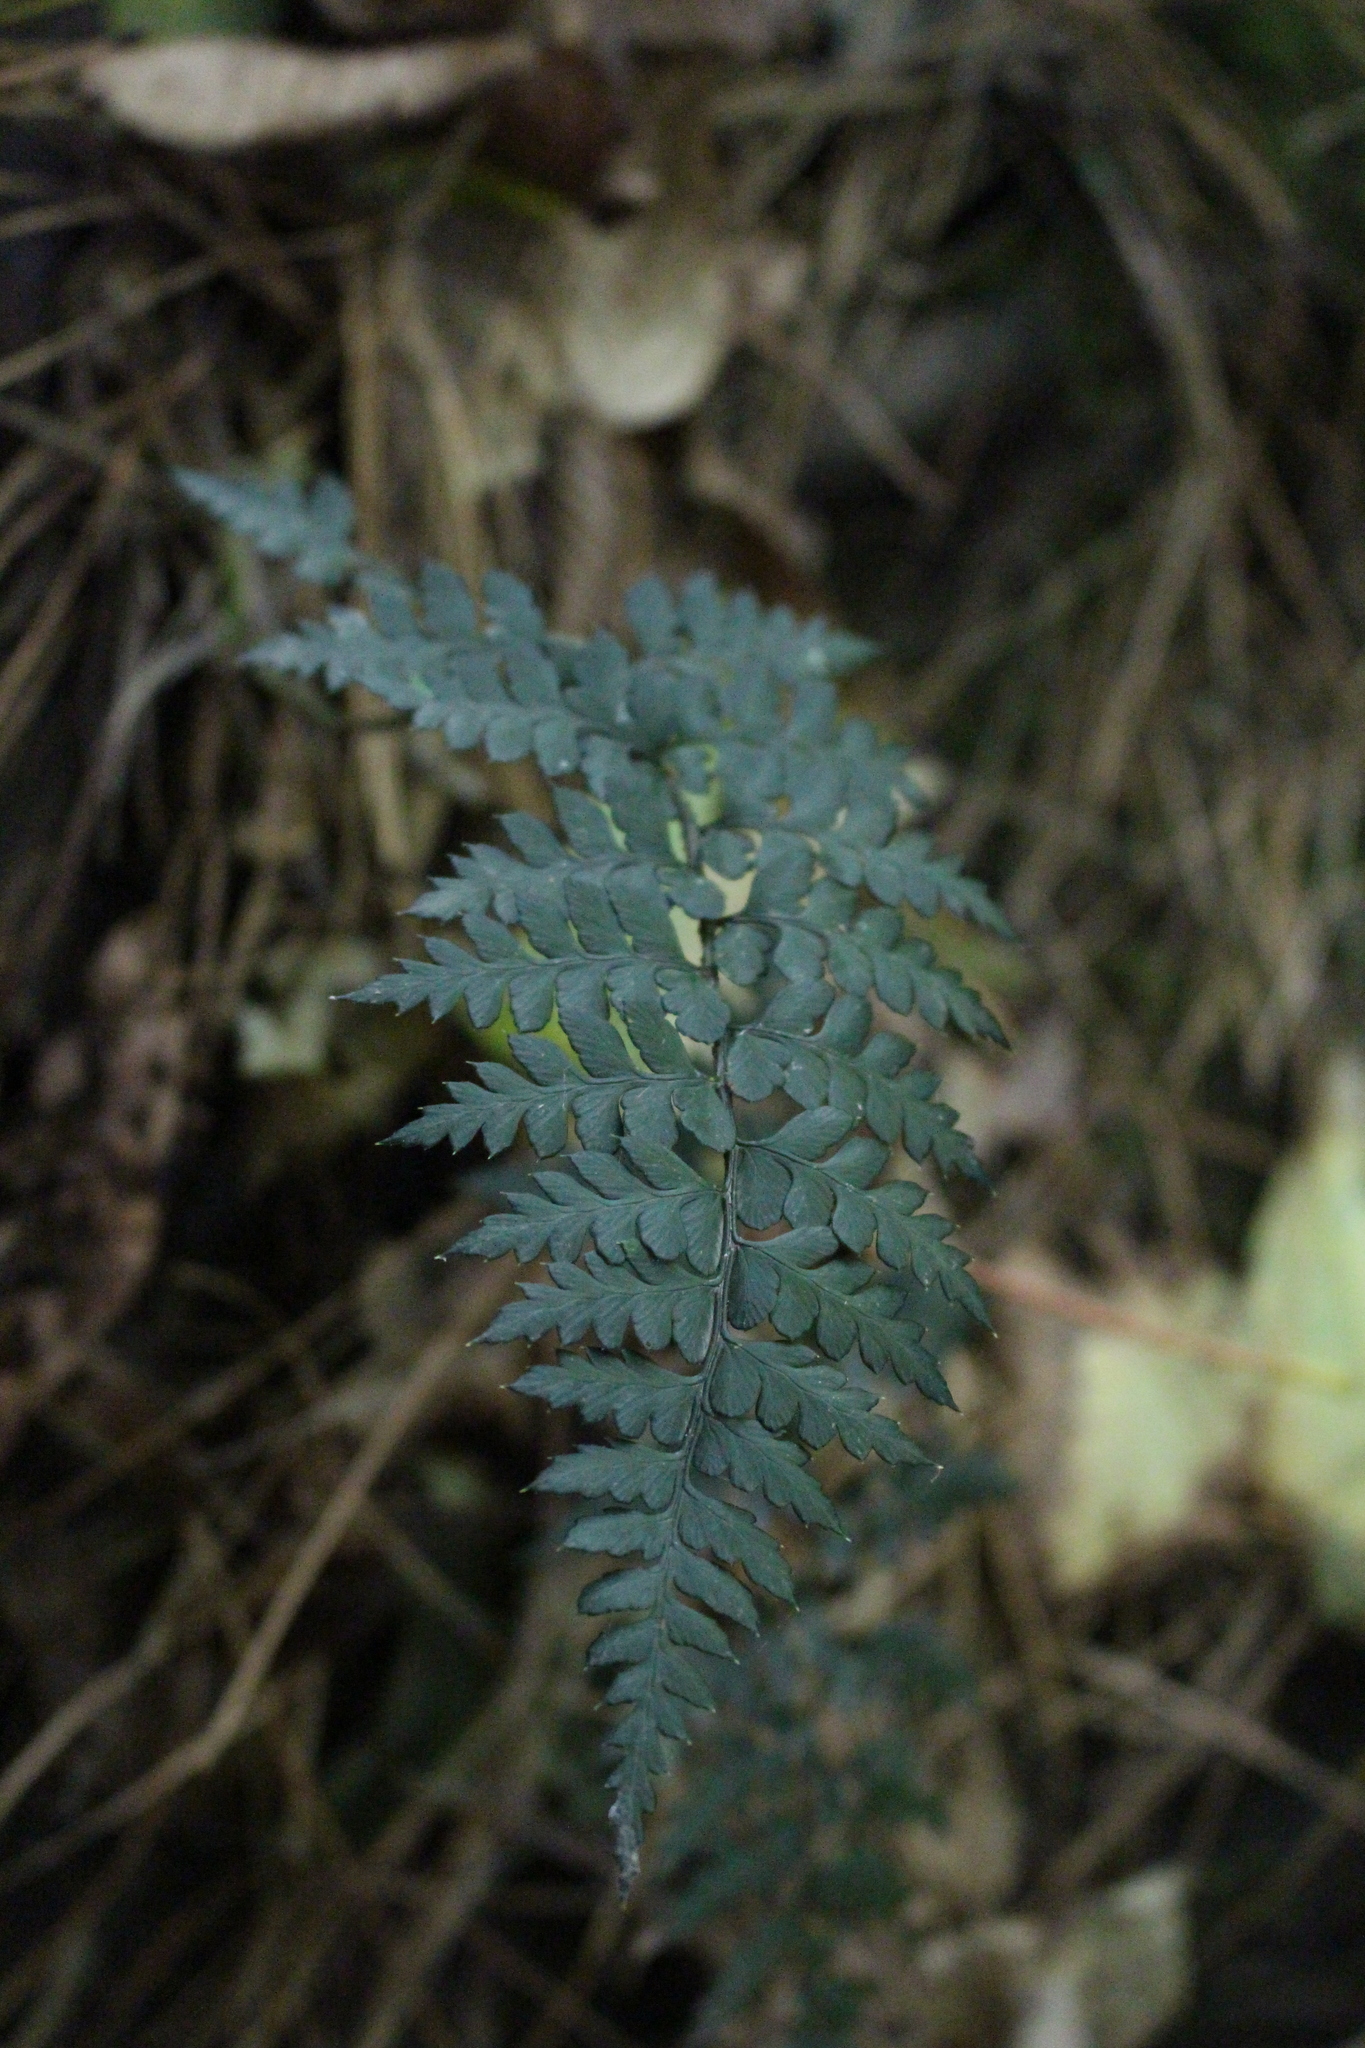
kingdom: Plantae
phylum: Tracheophyta
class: Polypodiopsida
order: Polypodiales
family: Dryopteridaceae
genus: Polystichum
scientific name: Polystichum oculatum
